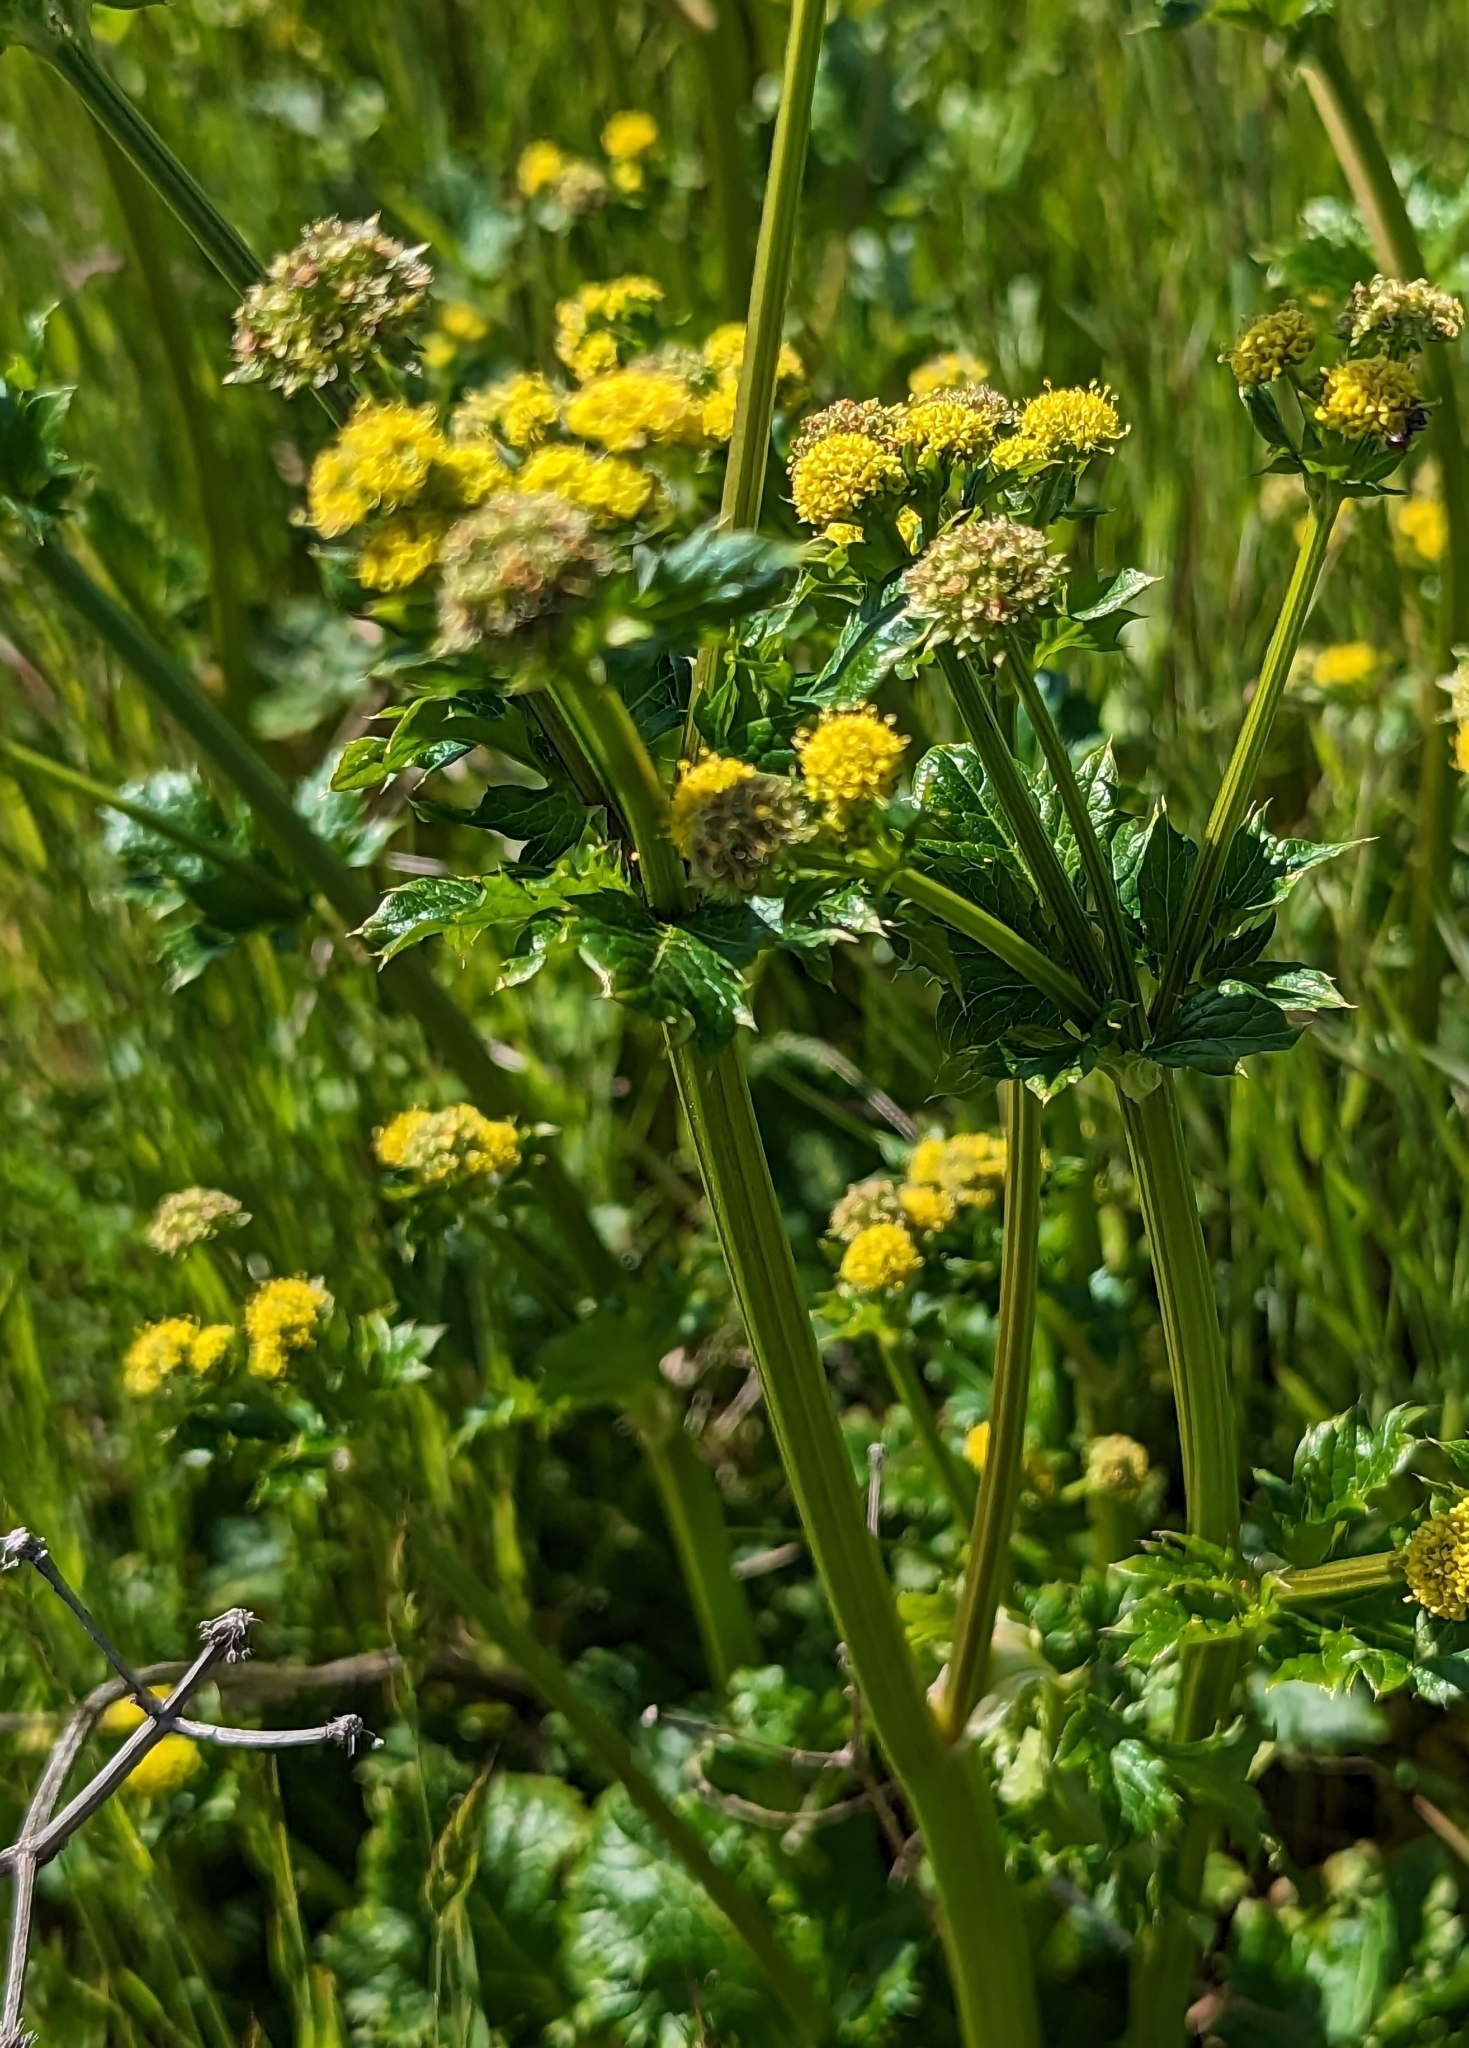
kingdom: Plantae
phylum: Tracheophyta
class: Magnoliopsida
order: Apiales
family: Apiaceae
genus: Sanicula
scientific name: Sanicula crassicaulis
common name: Western snakeroot
